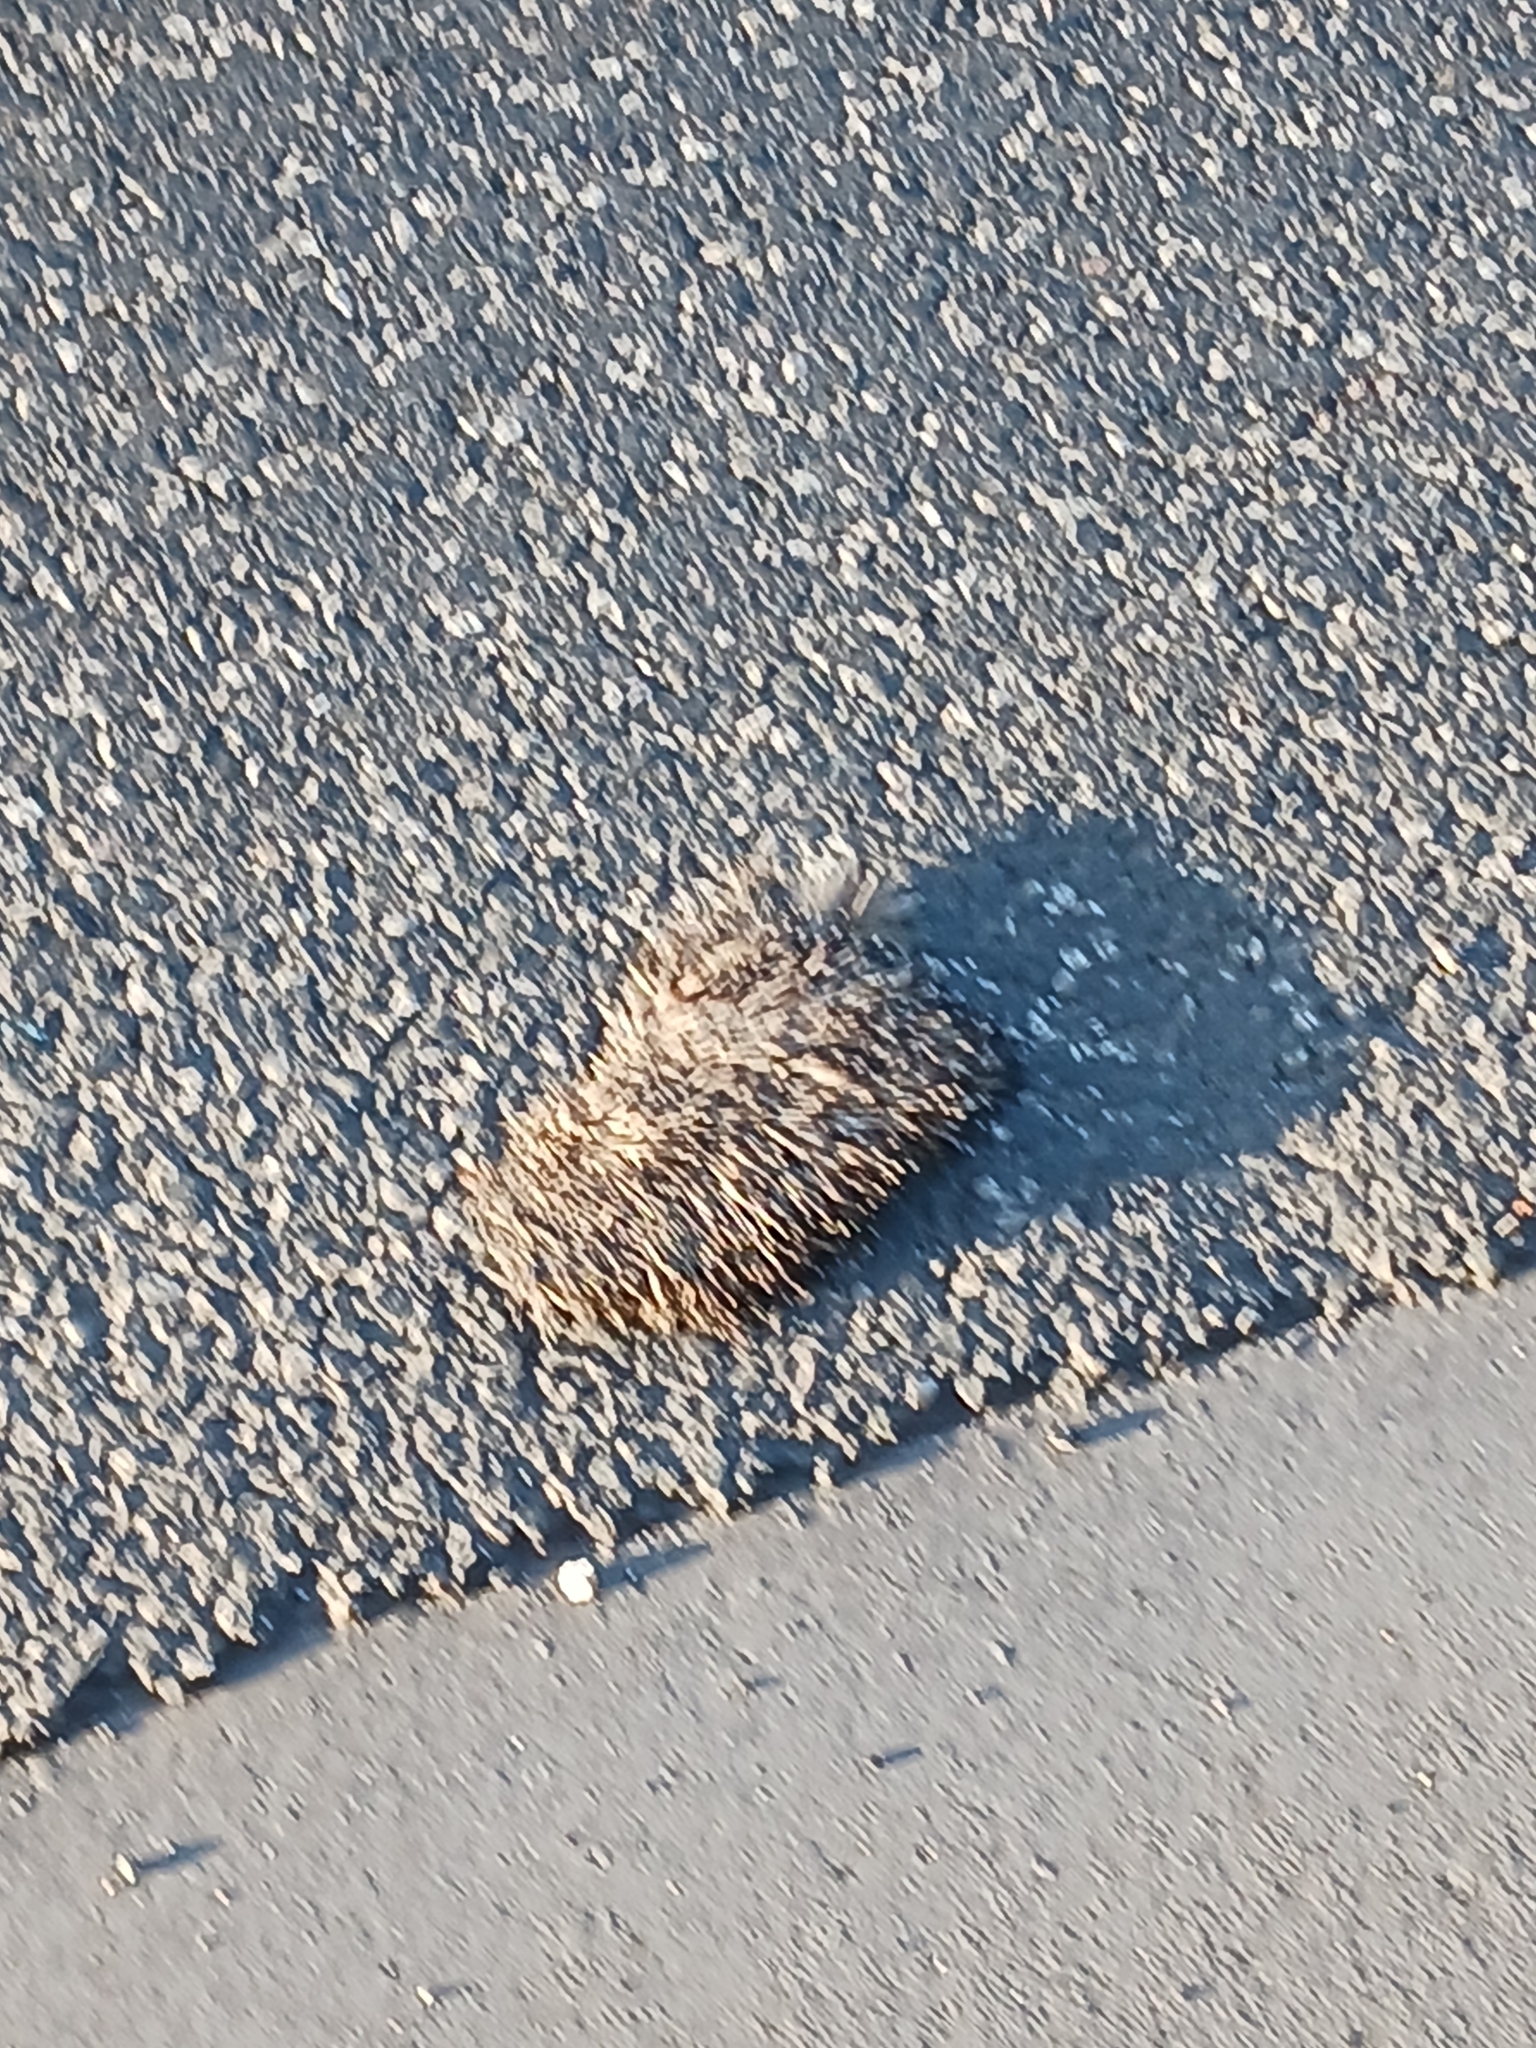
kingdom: Animalia
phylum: Chordata
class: Mammalia
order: Erinaceomorpha
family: Erinaceidae
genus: Erinaceus
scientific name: Erinaceus europaeus
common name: West european hedgehog
